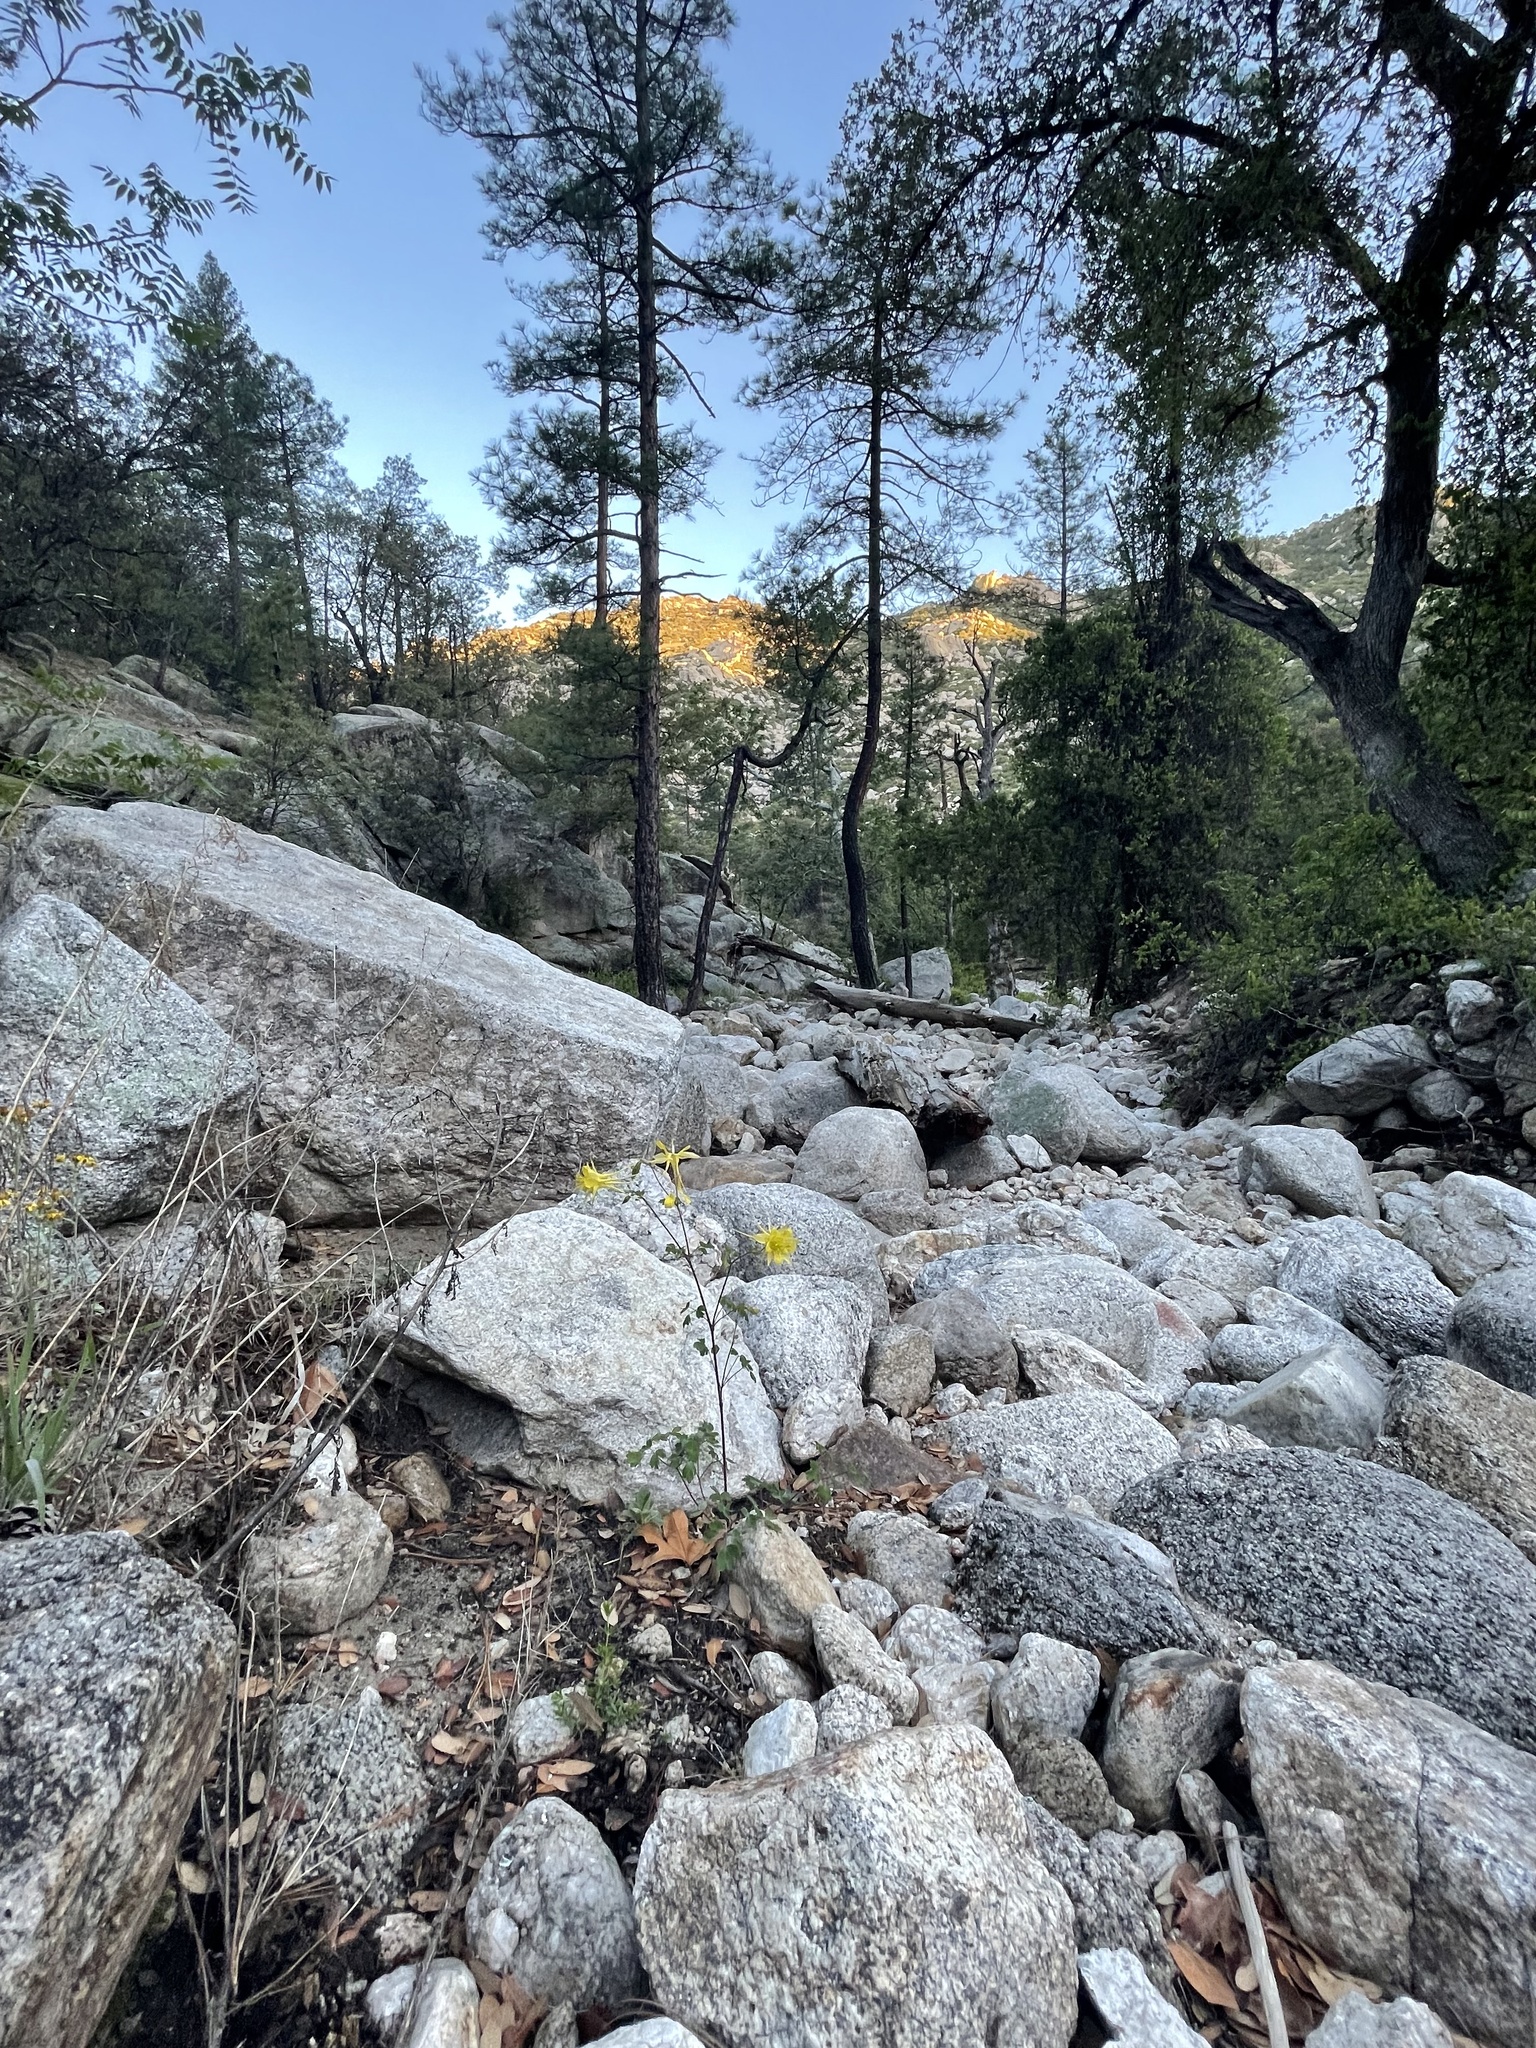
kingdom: Plantae
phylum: Tracheophyta
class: Magnoliopsida
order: Ranunculales
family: Ranunculaceae
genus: Aquilegia
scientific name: Aquilegia chrysantha
